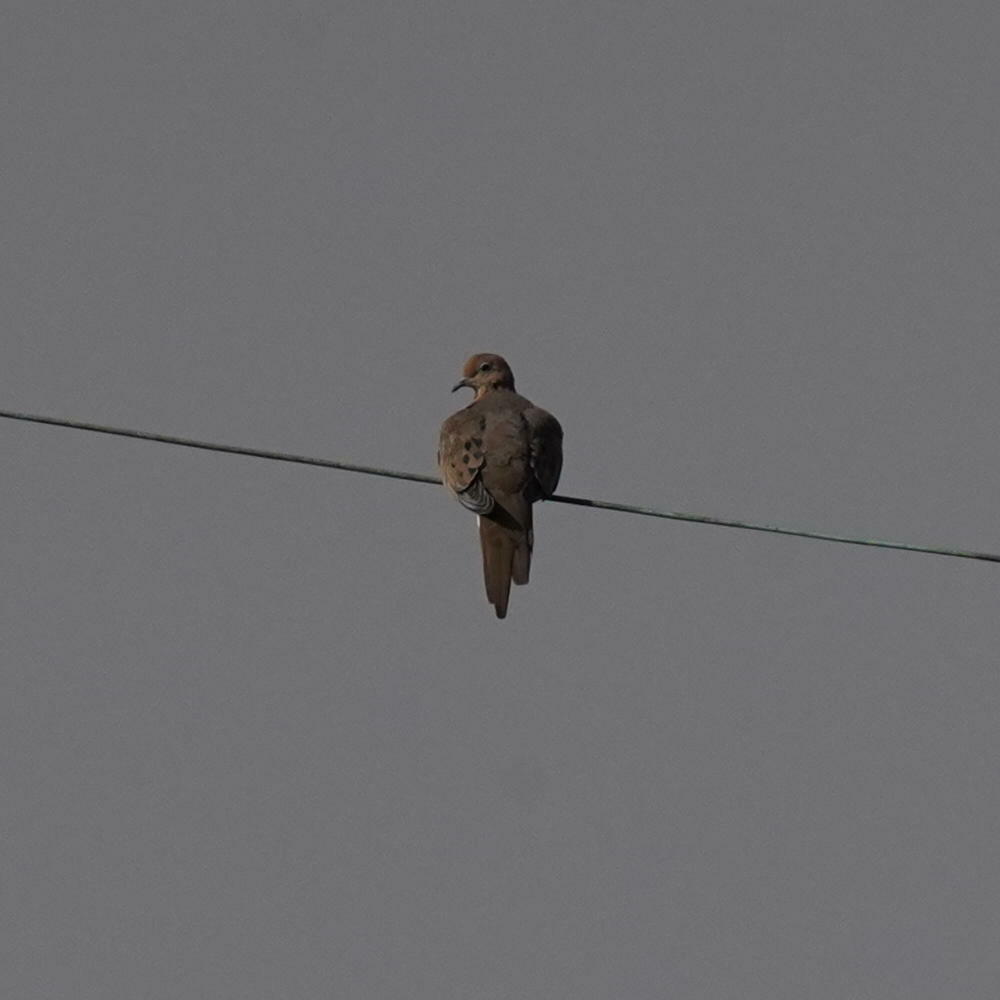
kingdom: Animalia
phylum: Chordata
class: Aves
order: Columbiformes
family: Columbidae
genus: Zenaida
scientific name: Zenaida macroura
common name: Mourning dove
